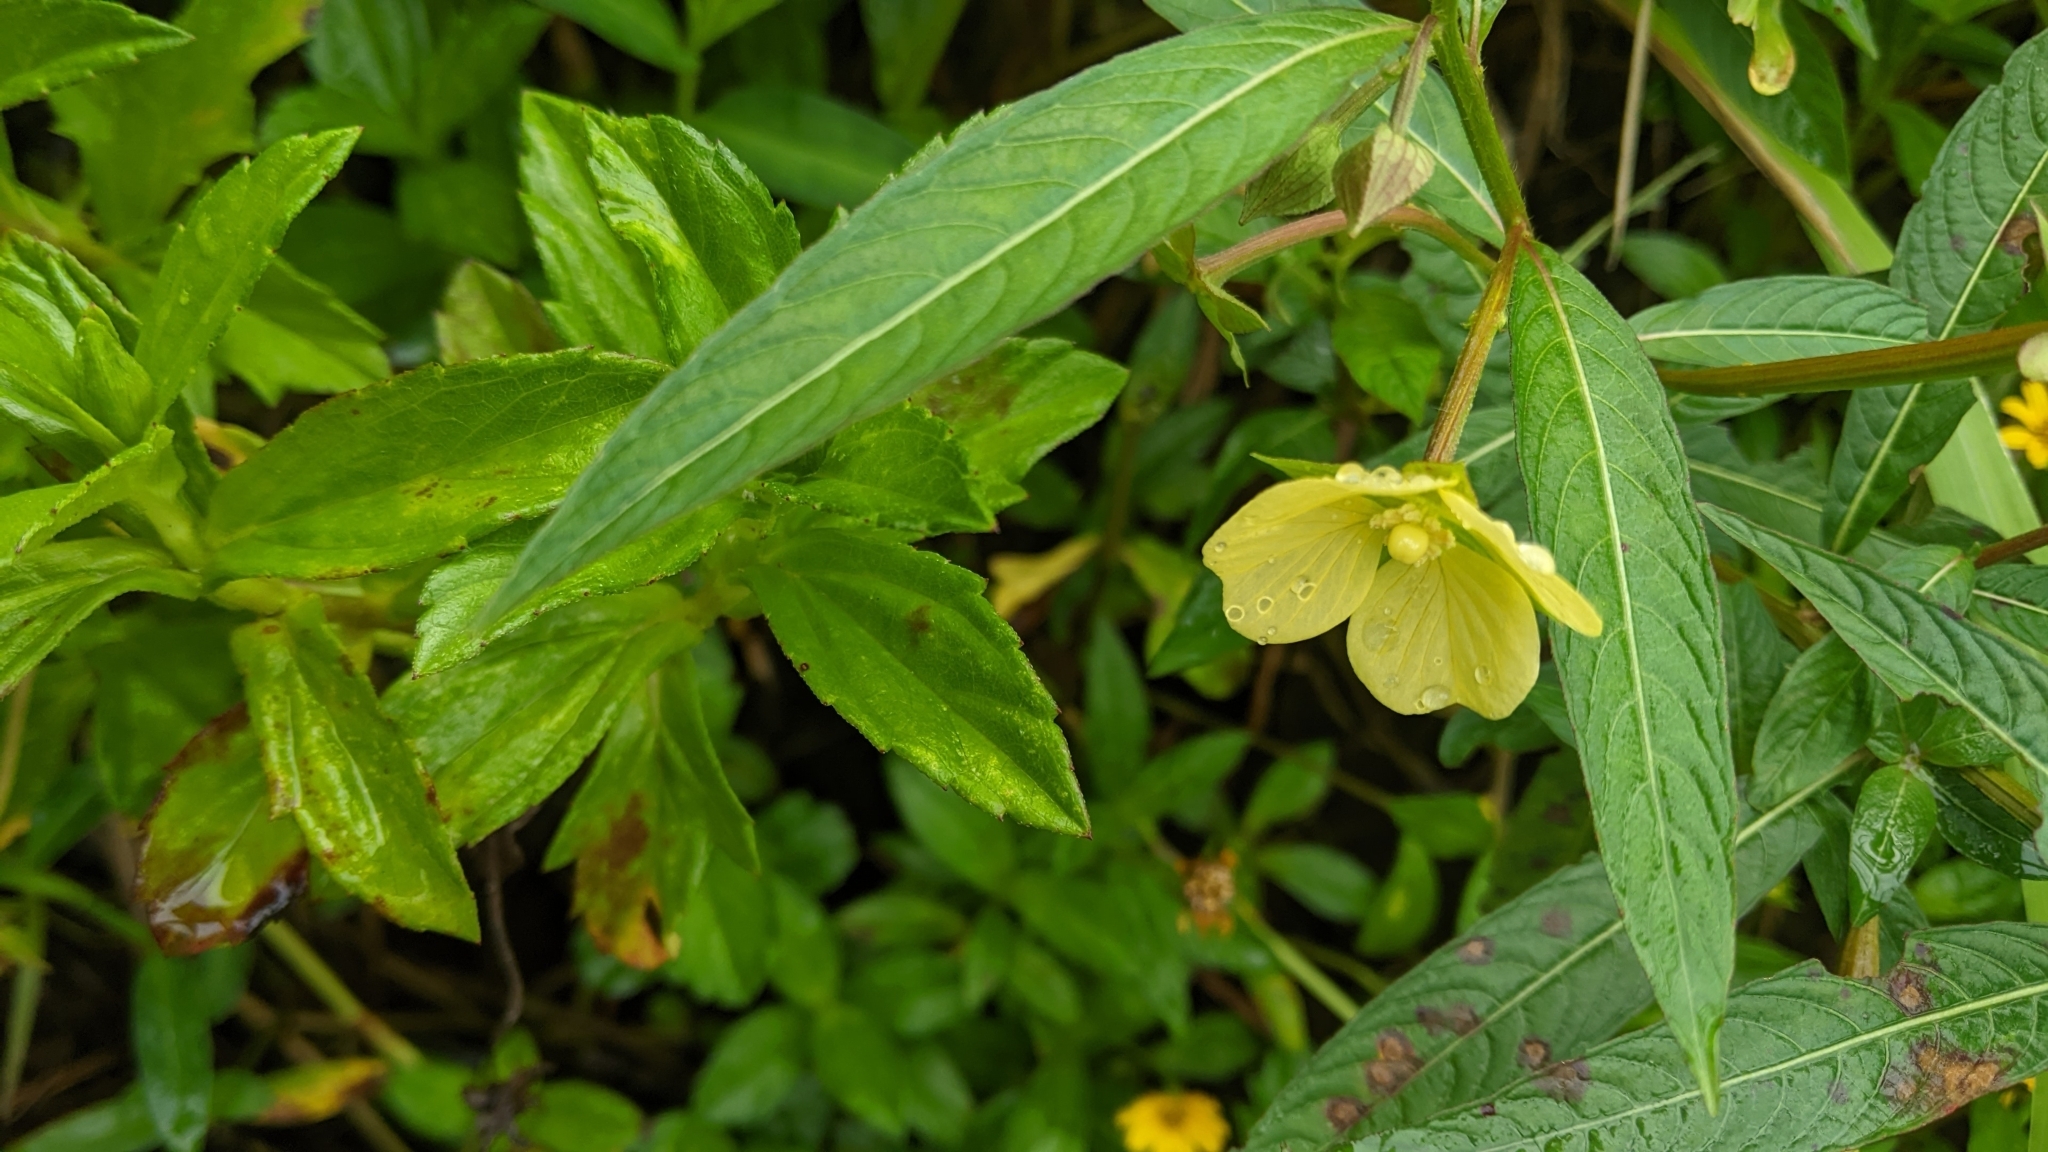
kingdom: Plantae
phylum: Tracheophyta
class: Magnoliopsida
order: Myrtales
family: Onagraceae
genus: Ludwigia
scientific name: Ludwigia octovalvis
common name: Water-primrose
